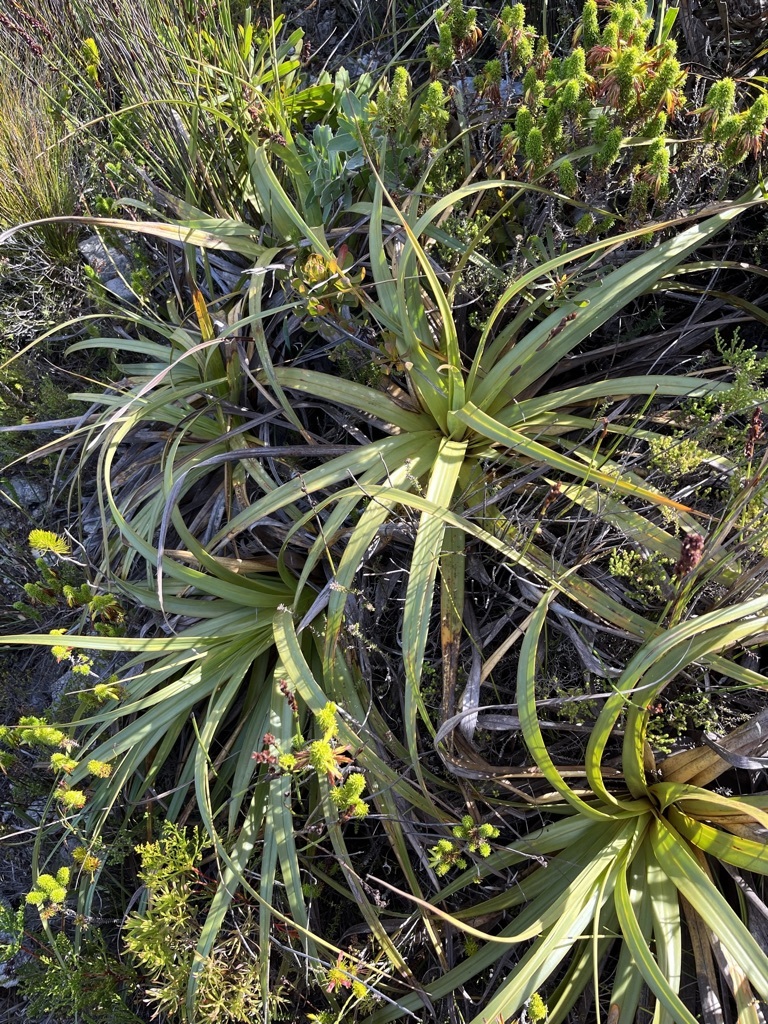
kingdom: Plantae
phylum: Tracheophyta
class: Liliopsida
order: Poales
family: Cyperaceae
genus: Tetraria
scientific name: Tetraria thermalis
